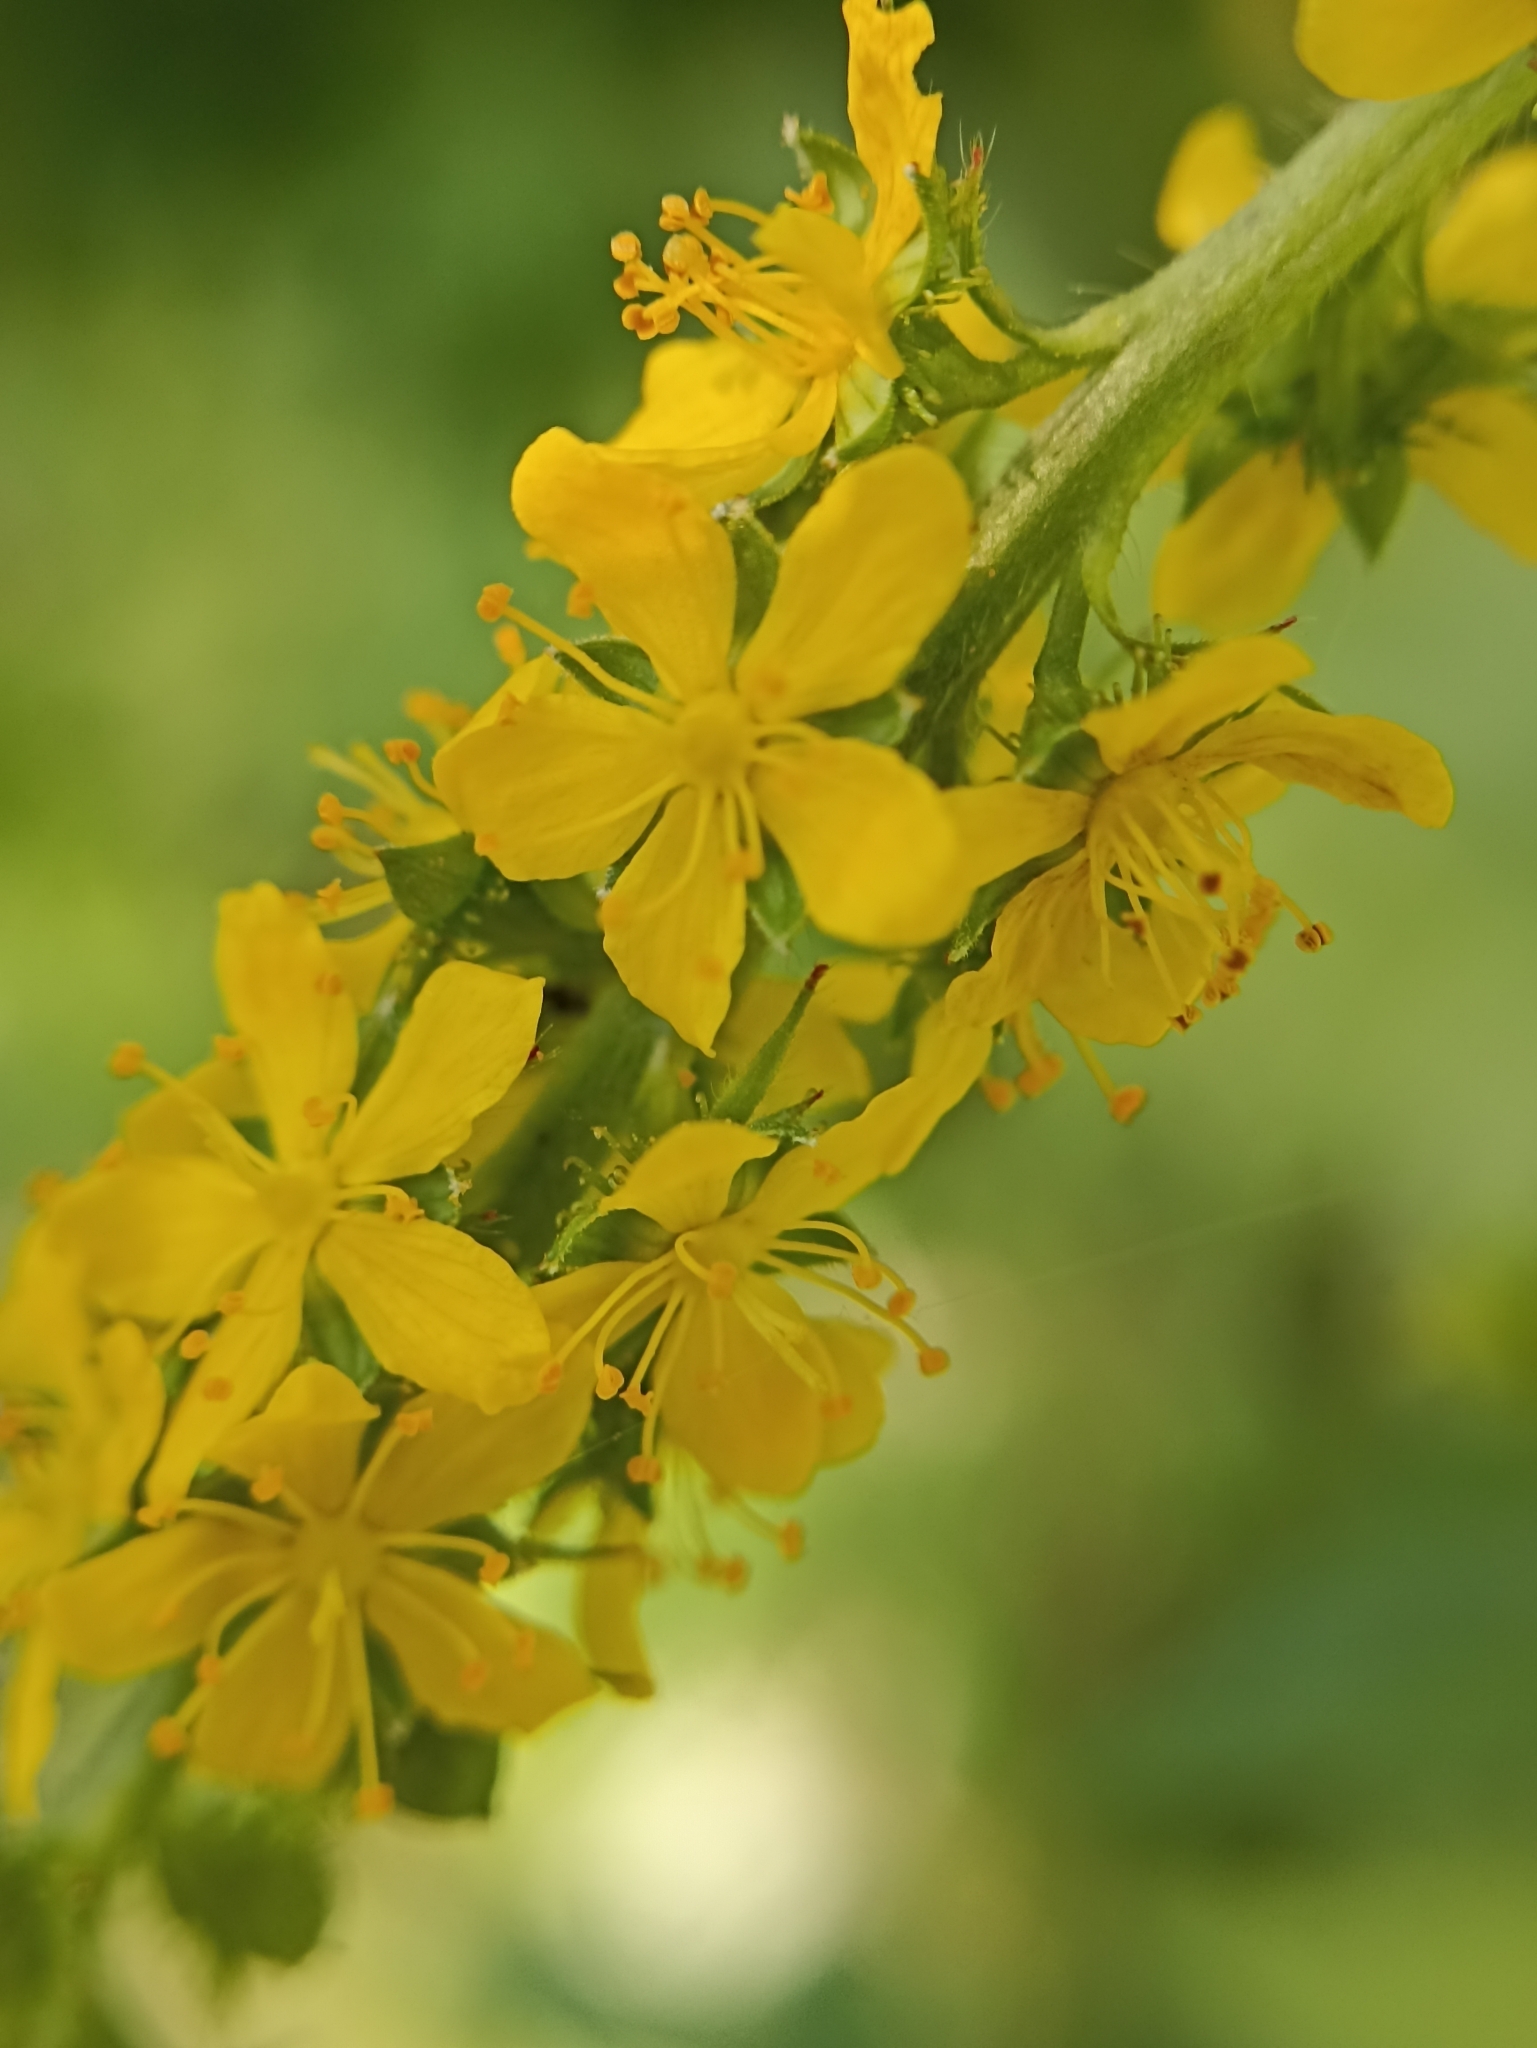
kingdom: Plantae
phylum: Tracheophyta
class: Magnoliopsida
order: Rosales
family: Rosaceae
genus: Agrimonia
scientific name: Agrimonia pilosa
